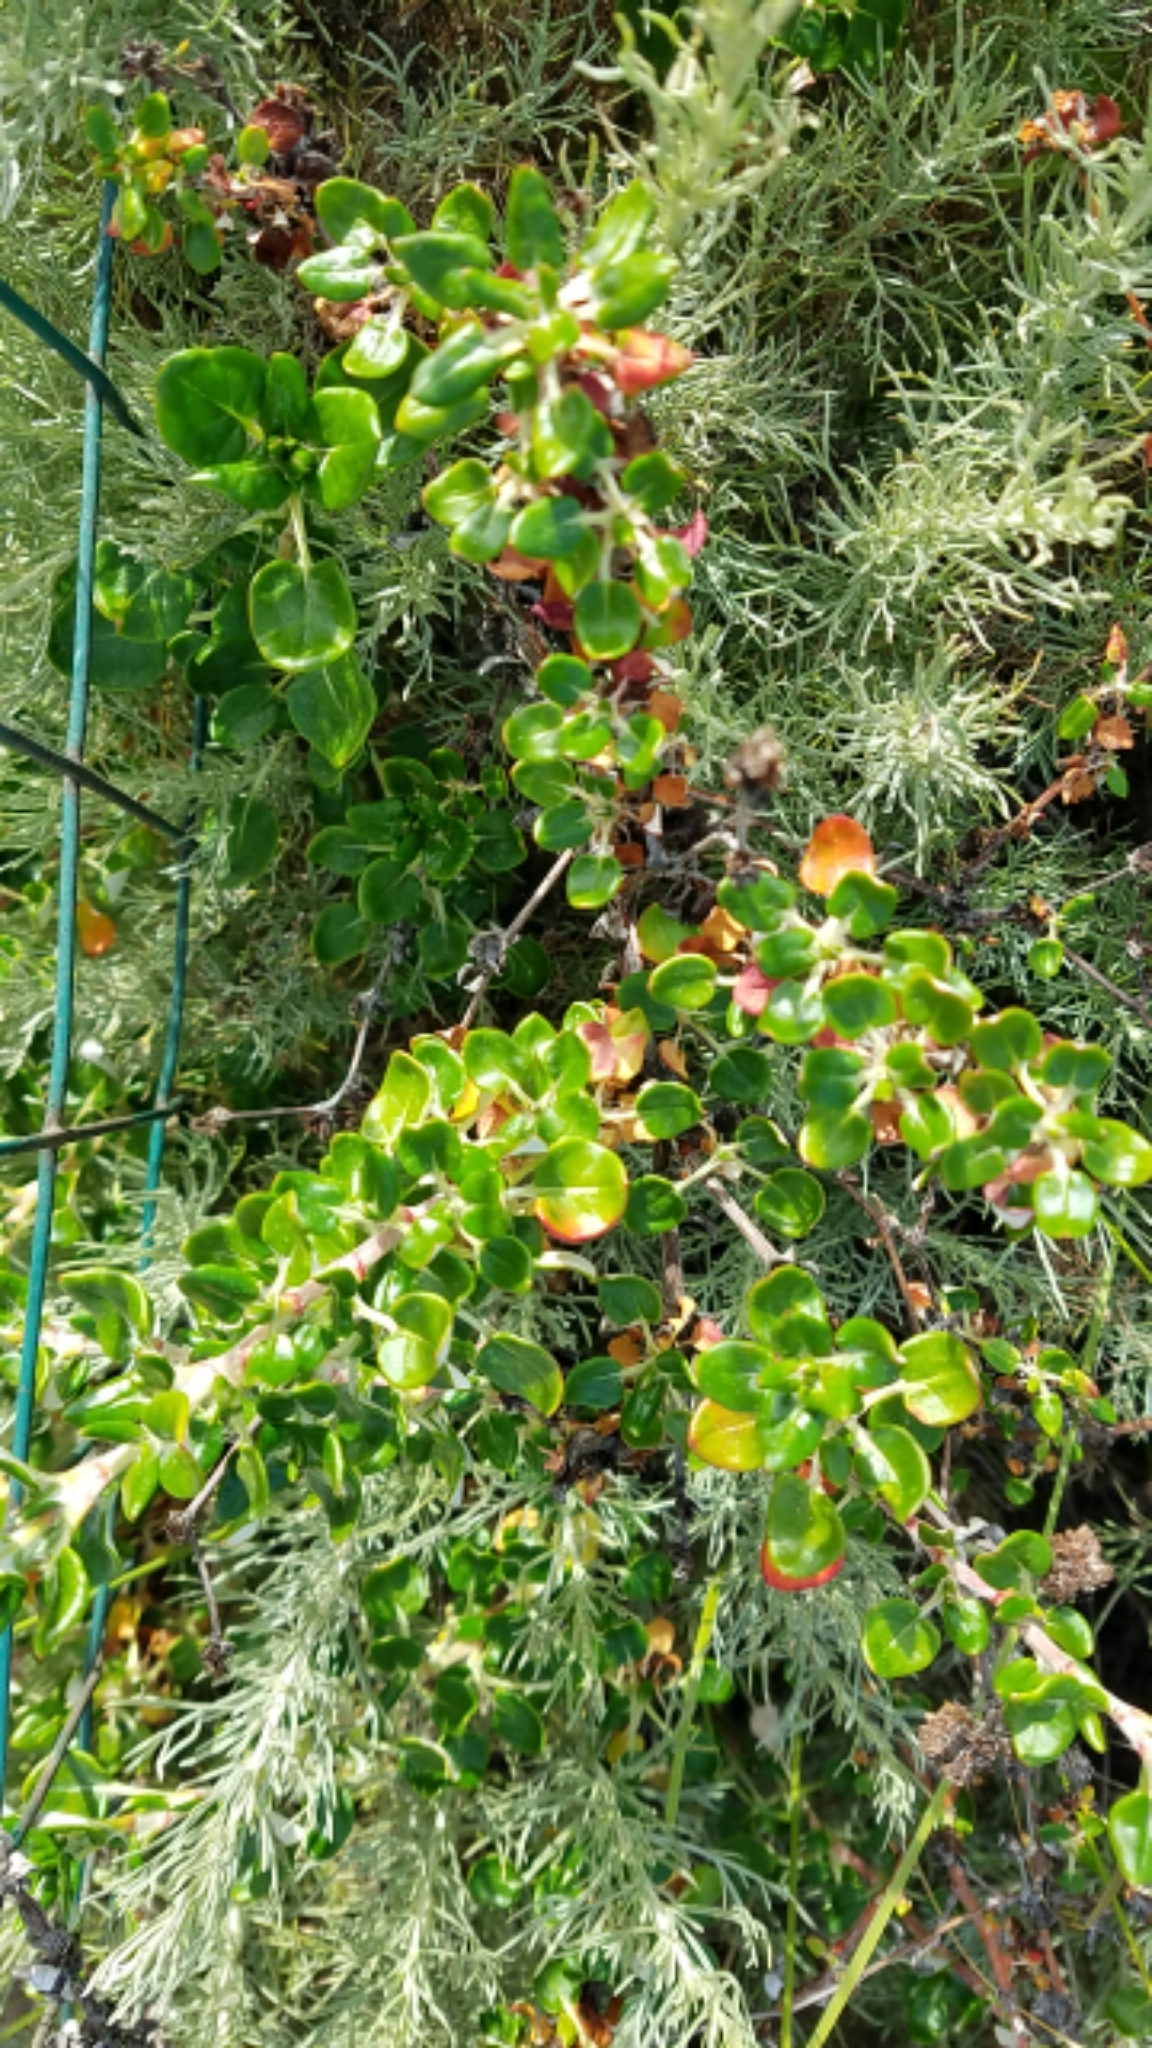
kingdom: Plantae
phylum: Tracheophyta
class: Magnoliopsida
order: Caryophyllales
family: Polygonaceae
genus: Eriogonum
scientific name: Eriogonum parvifolium
